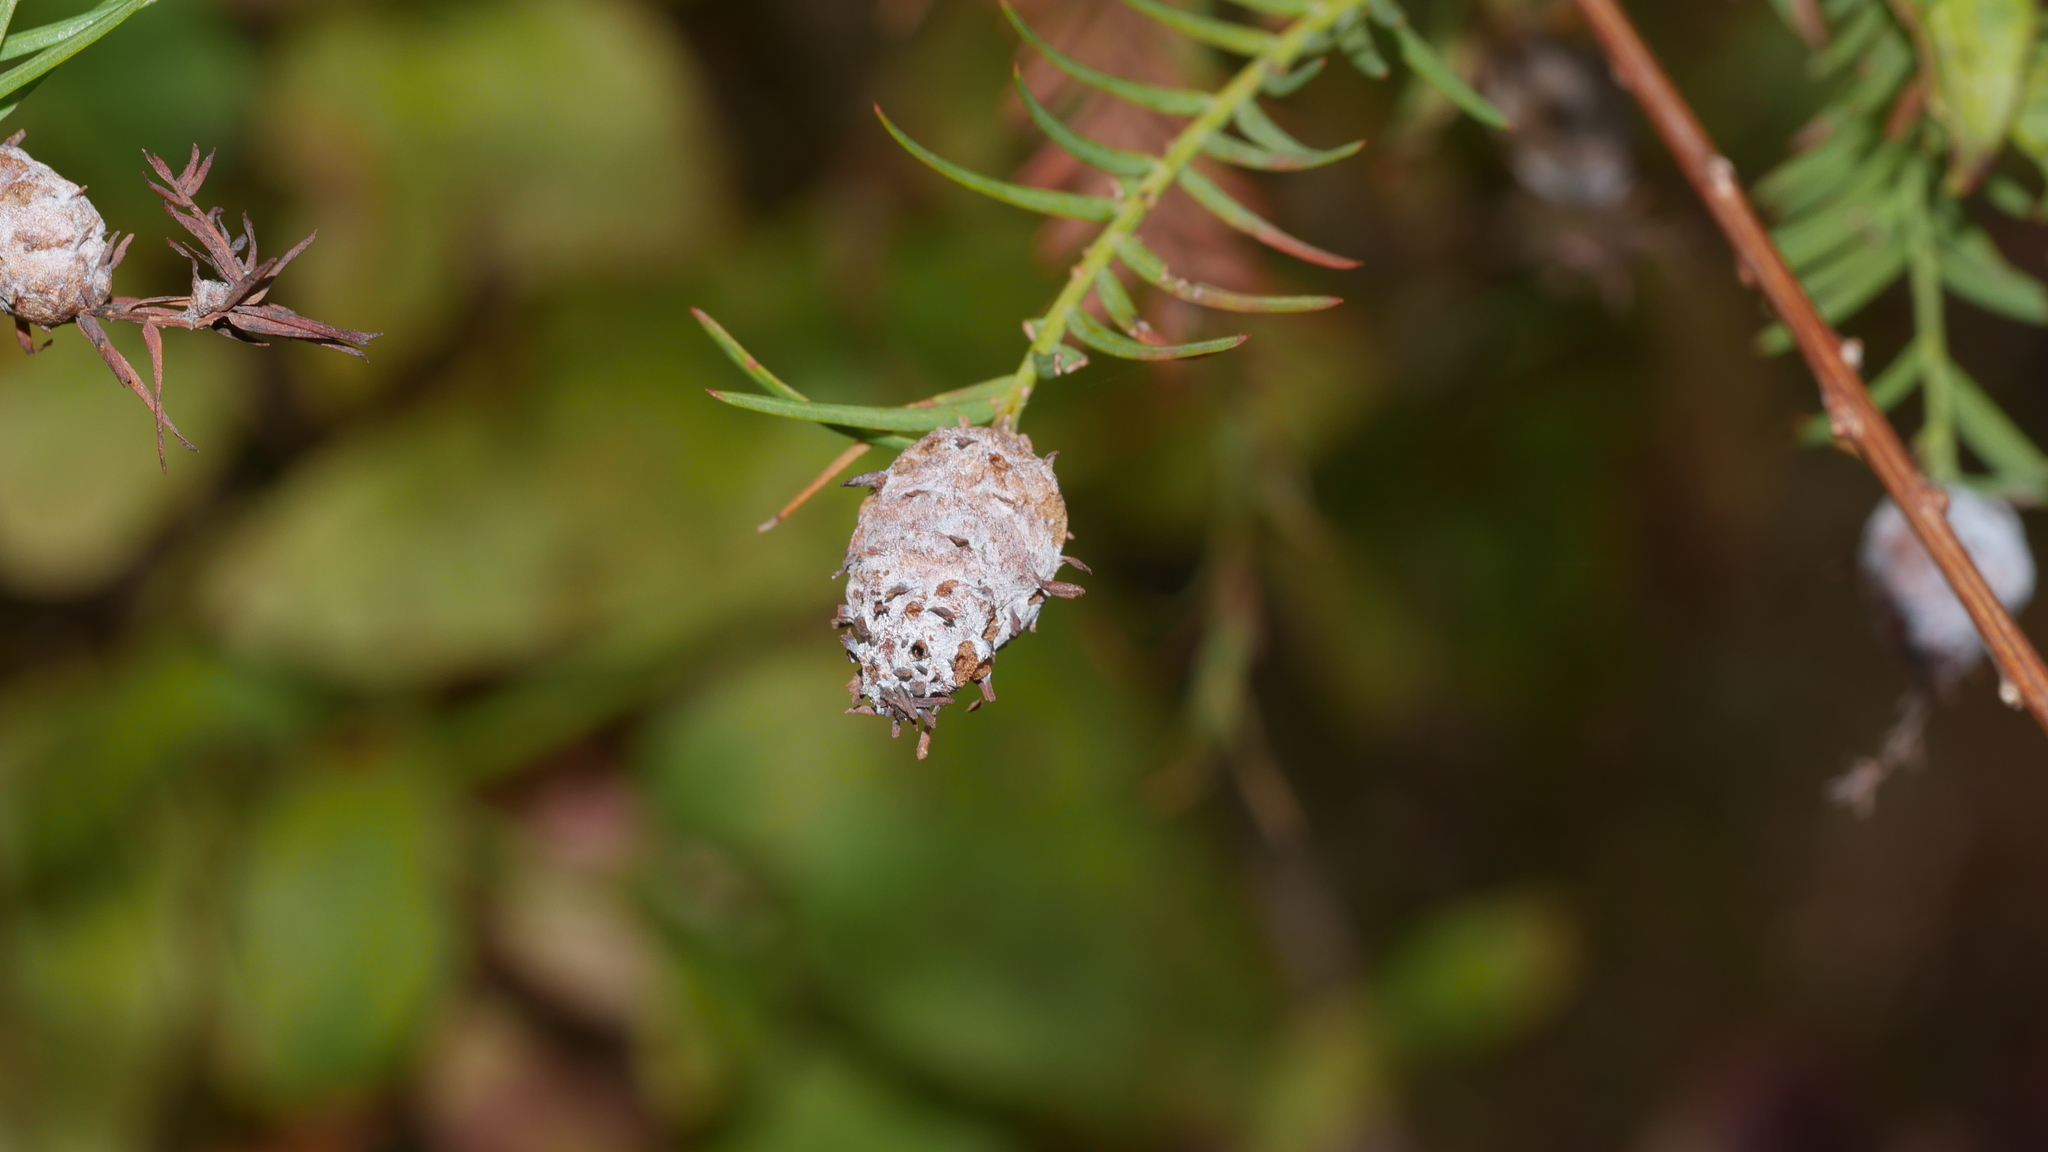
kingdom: Animalia
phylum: Arthropoda
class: Insecta
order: Diptera
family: Cecidomyiidae
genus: Taxodiomyia
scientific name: Taxodiomyia cupressiananassa
